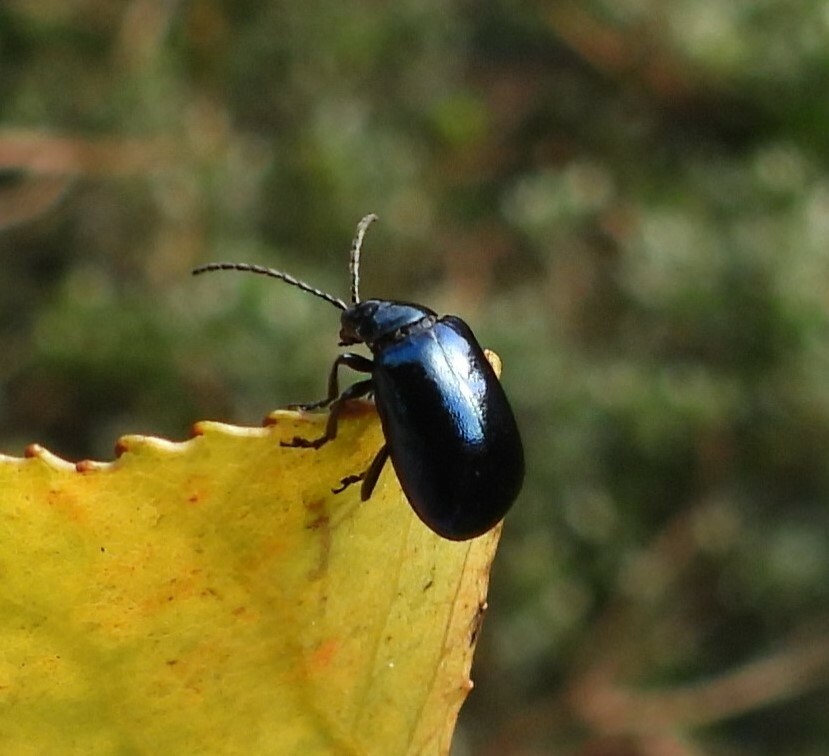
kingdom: Animalia
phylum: Arthropoda
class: Insecta
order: Coleoptera
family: Chrysomelidae
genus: Agelastica
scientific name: Agelastica alni
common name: Alder leaf beetle
